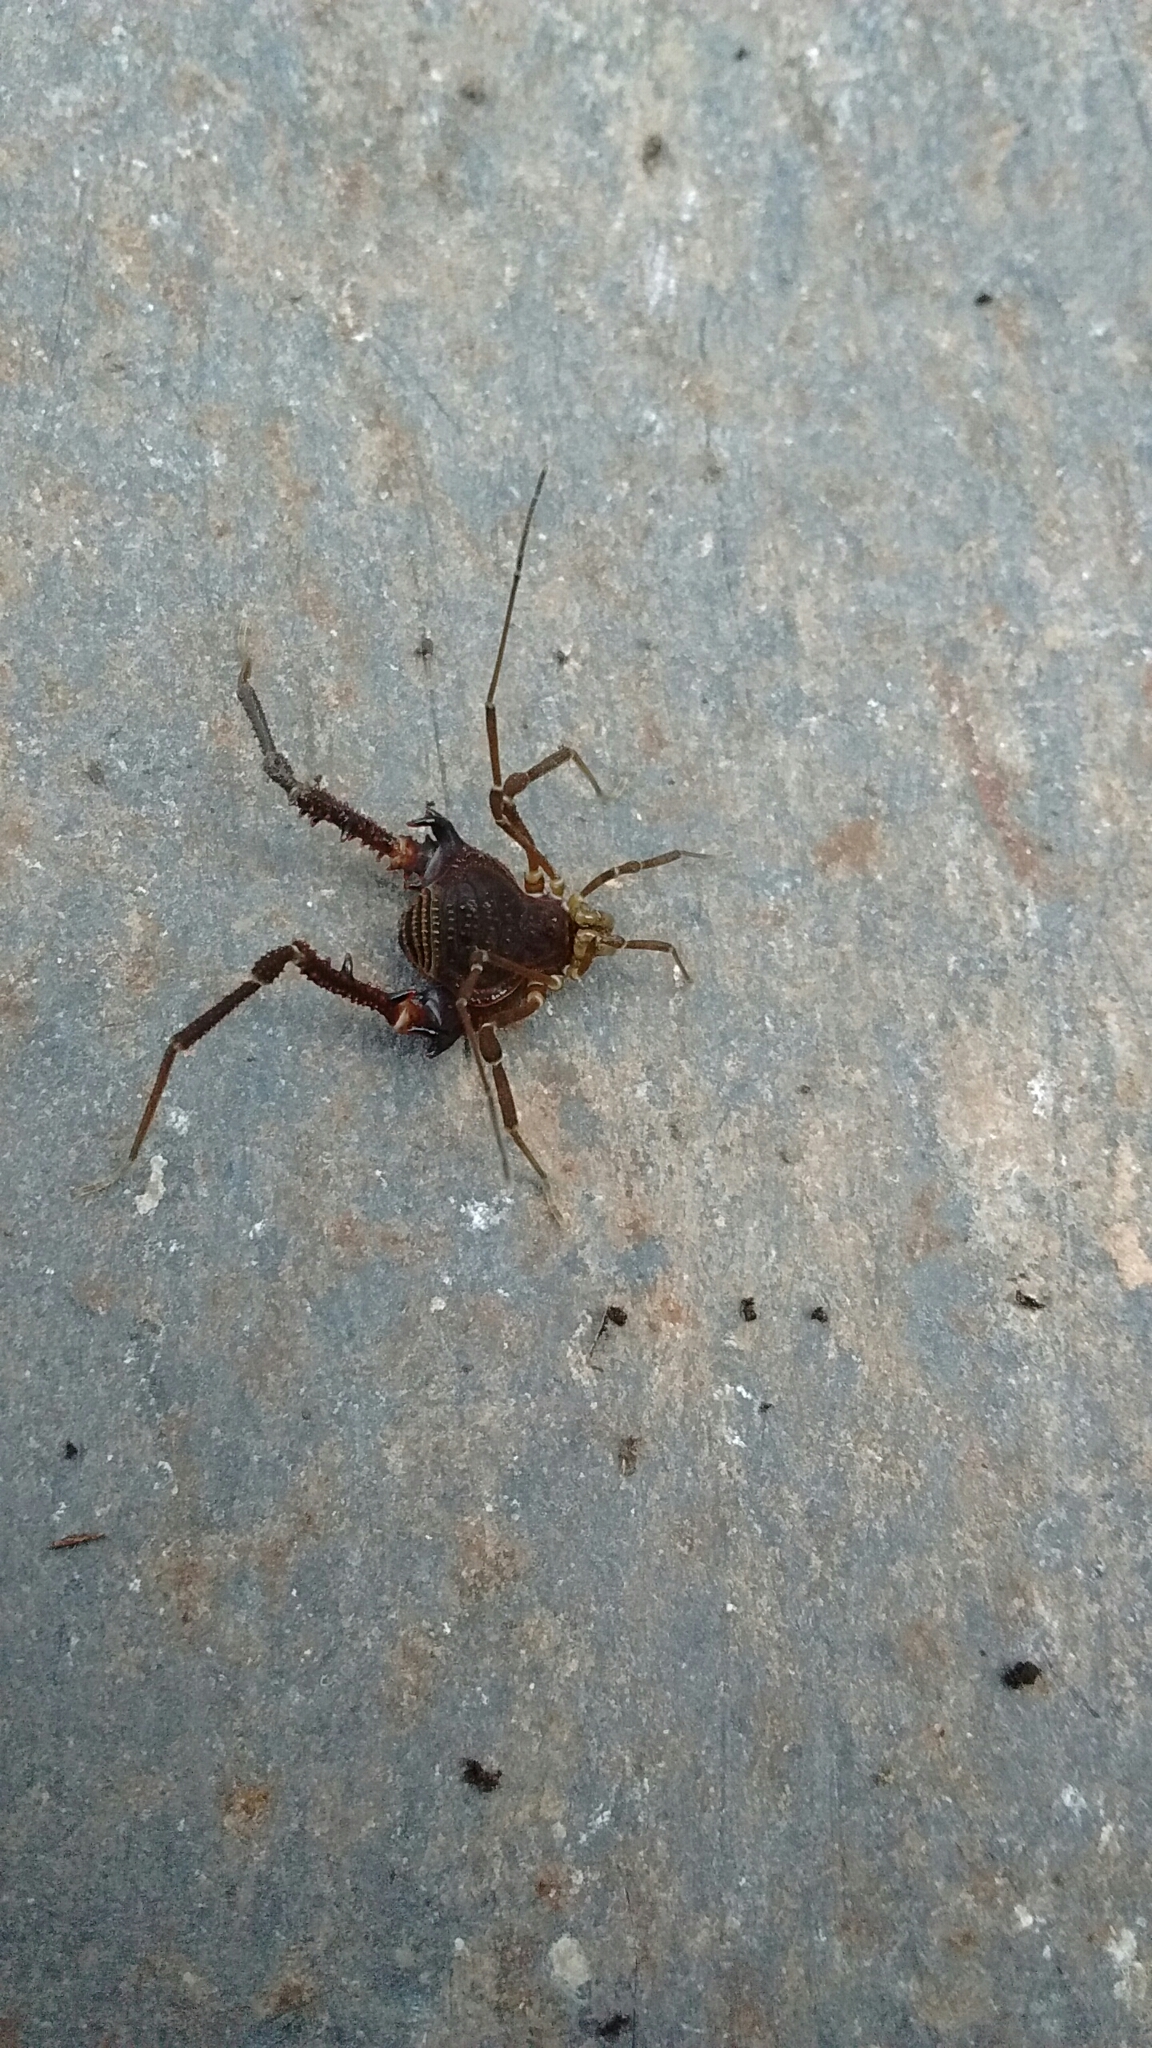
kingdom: Animalia
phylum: Arthropoda
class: Arachnida
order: Opiliones
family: Gonyleptidae
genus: Opisthoplatus
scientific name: Opisthoplatus prospicuus
